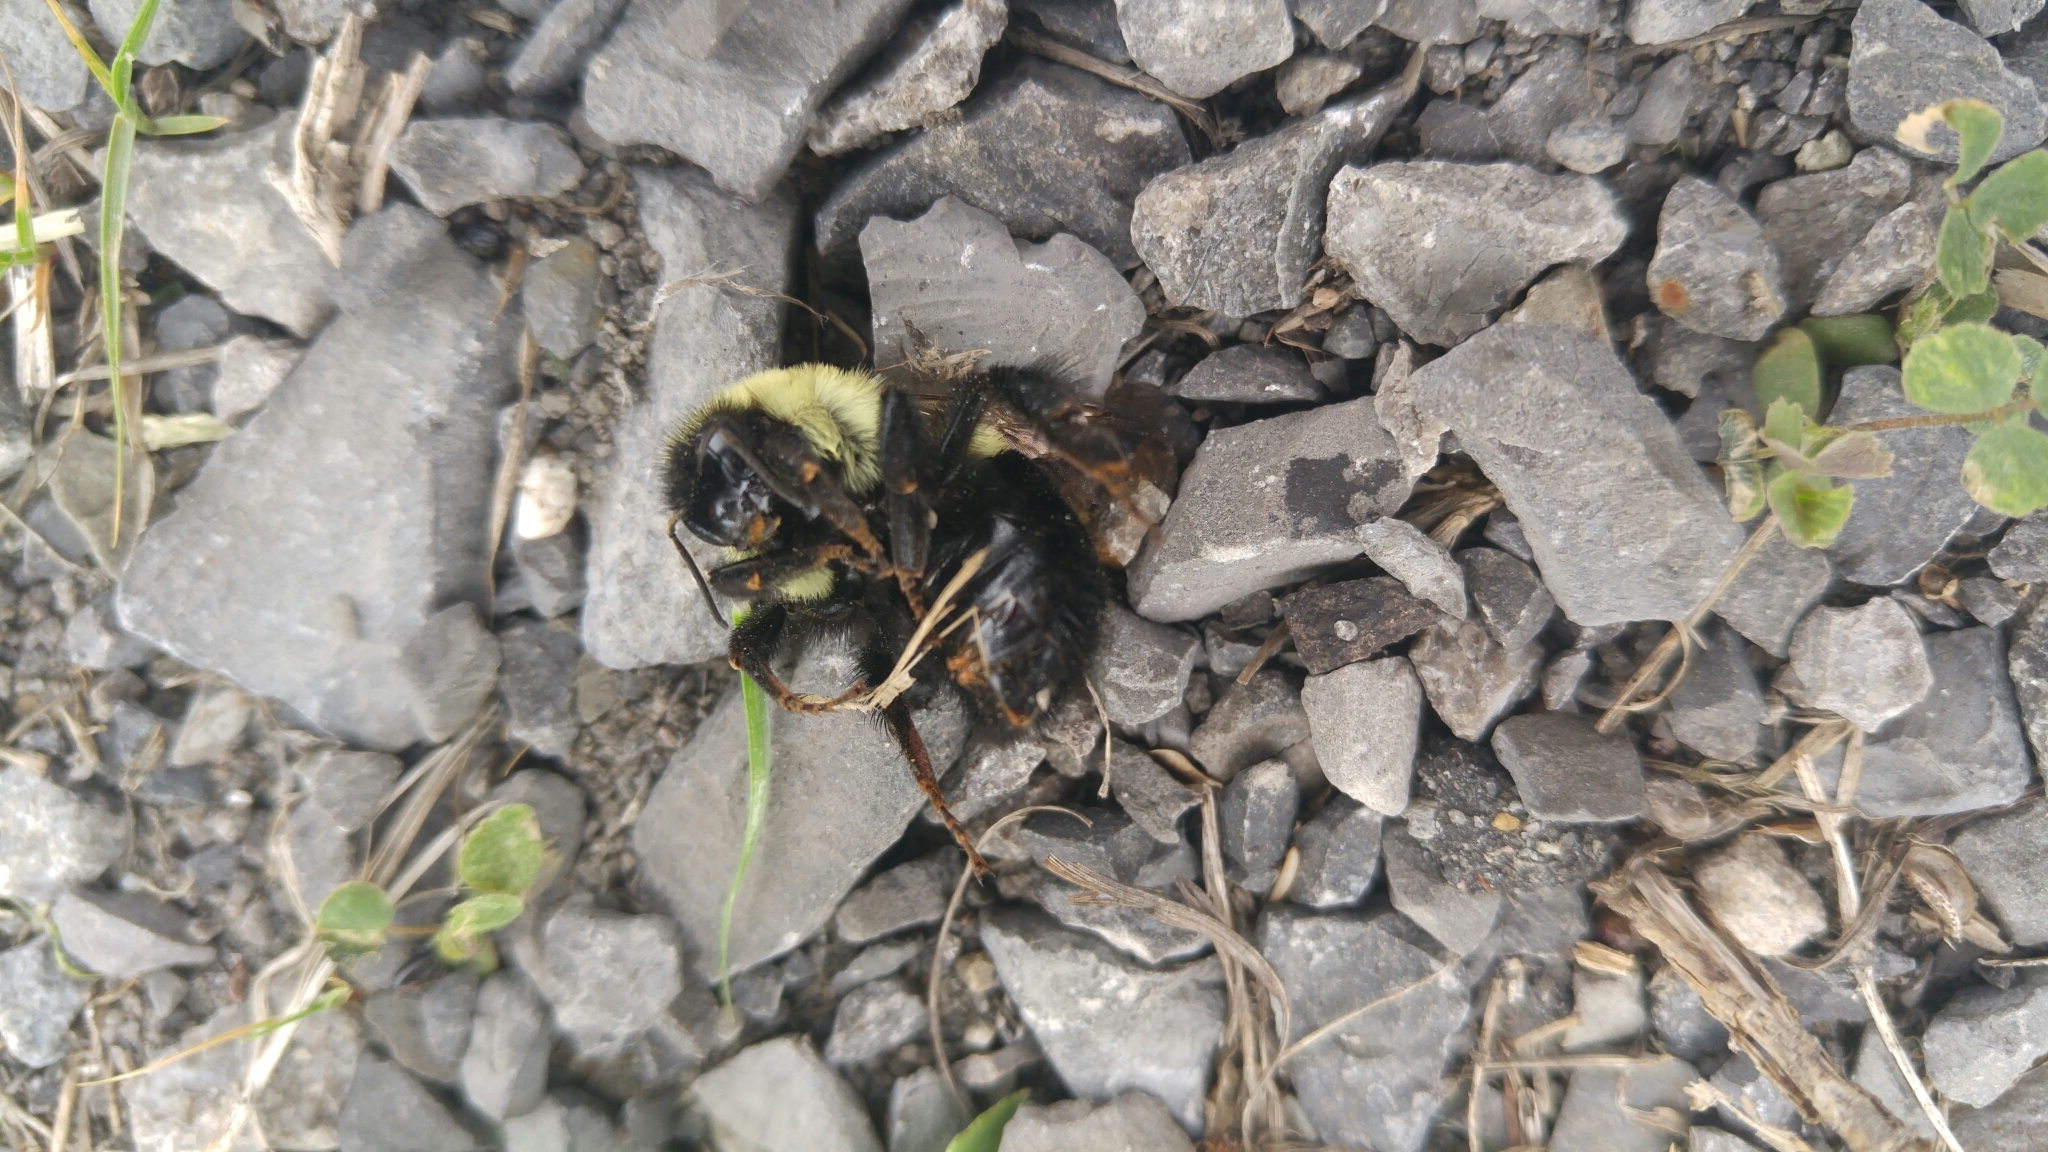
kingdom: Animalia
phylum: Arthropoda
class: Insecta
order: Hymenoptera
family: Apidae
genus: Bombus
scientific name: Bombus impatiens
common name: Common eastern bumble bee
